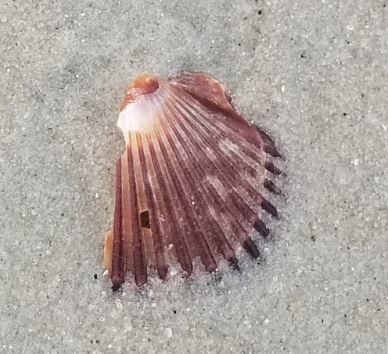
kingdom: Animalia
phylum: Mollusca
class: Bivalvia
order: Pectinida
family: Pectinidae
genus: Argopecten
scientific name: Argopecten irradians
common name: Atlantic bay scallop
